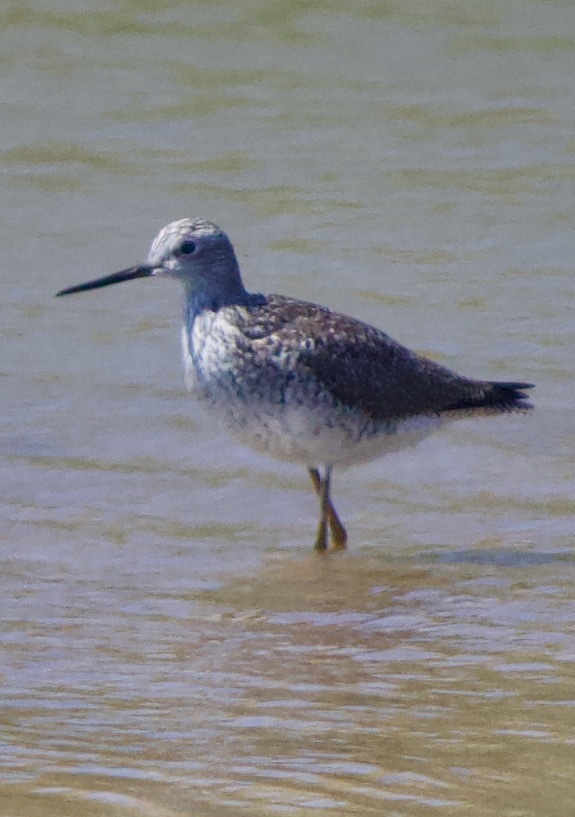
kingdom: Animalia
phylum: Chordata
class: Aves
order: Charadriiformes
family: Scolopacidae
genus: Tringa
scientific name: Tringa melanoleuca
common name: Greater yellowlegs
